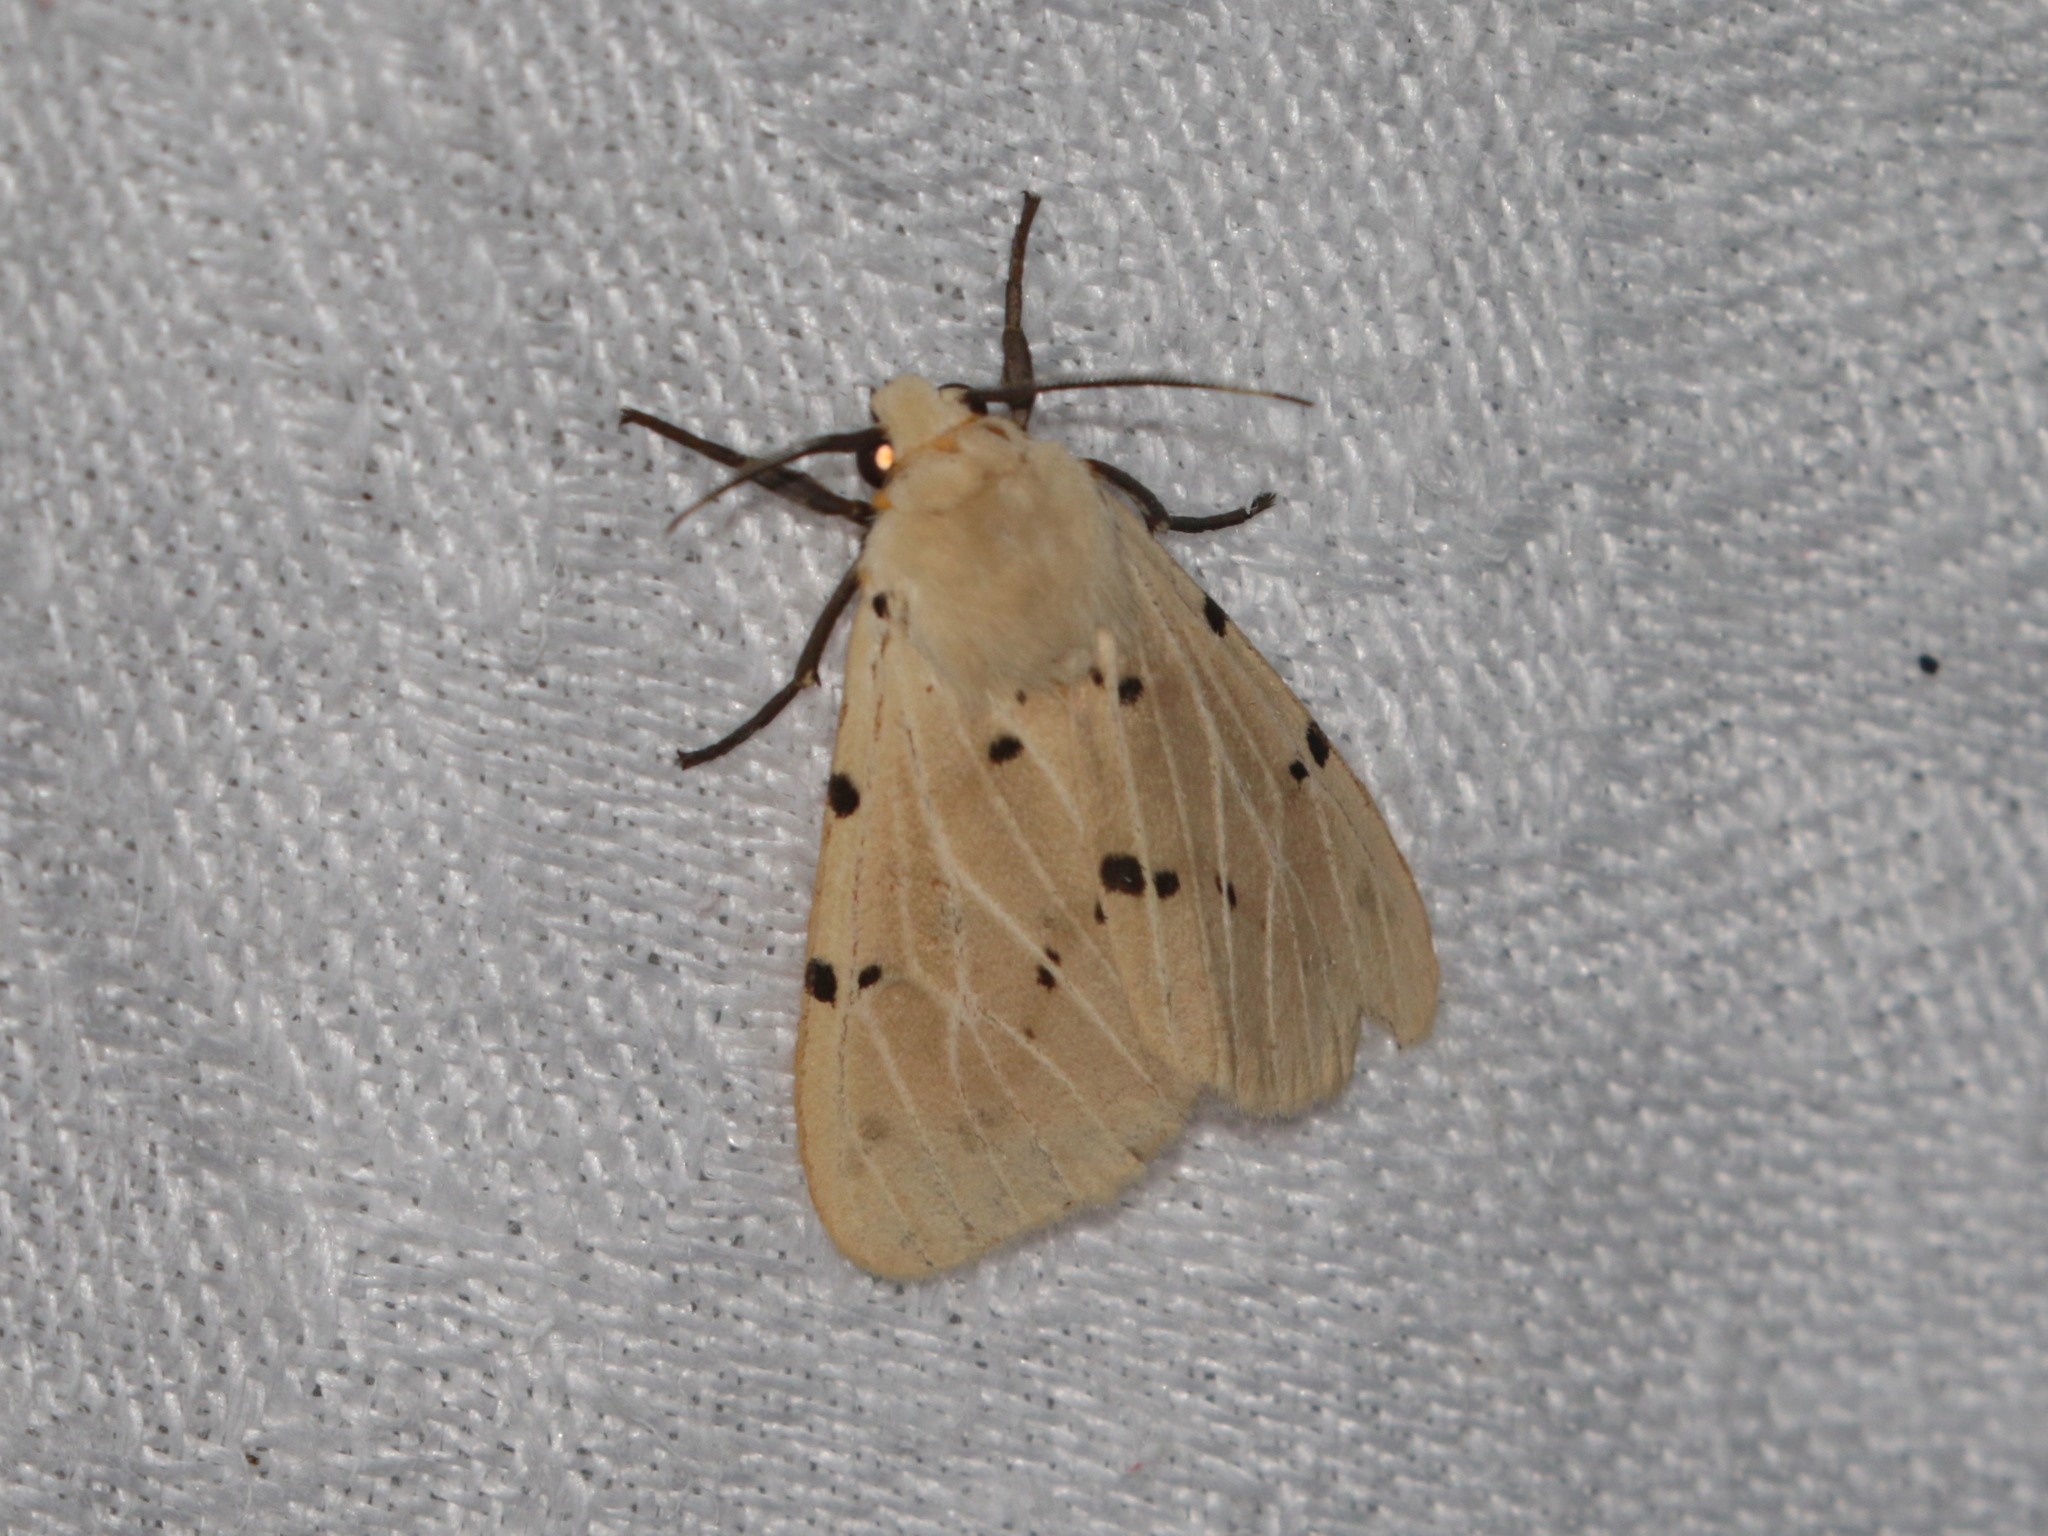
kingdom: Animalia
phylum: Arthropoda
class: Insecta
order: Lepidoptera
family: Erebidae
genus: Spilosoma
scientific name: Spilosoma punctata
